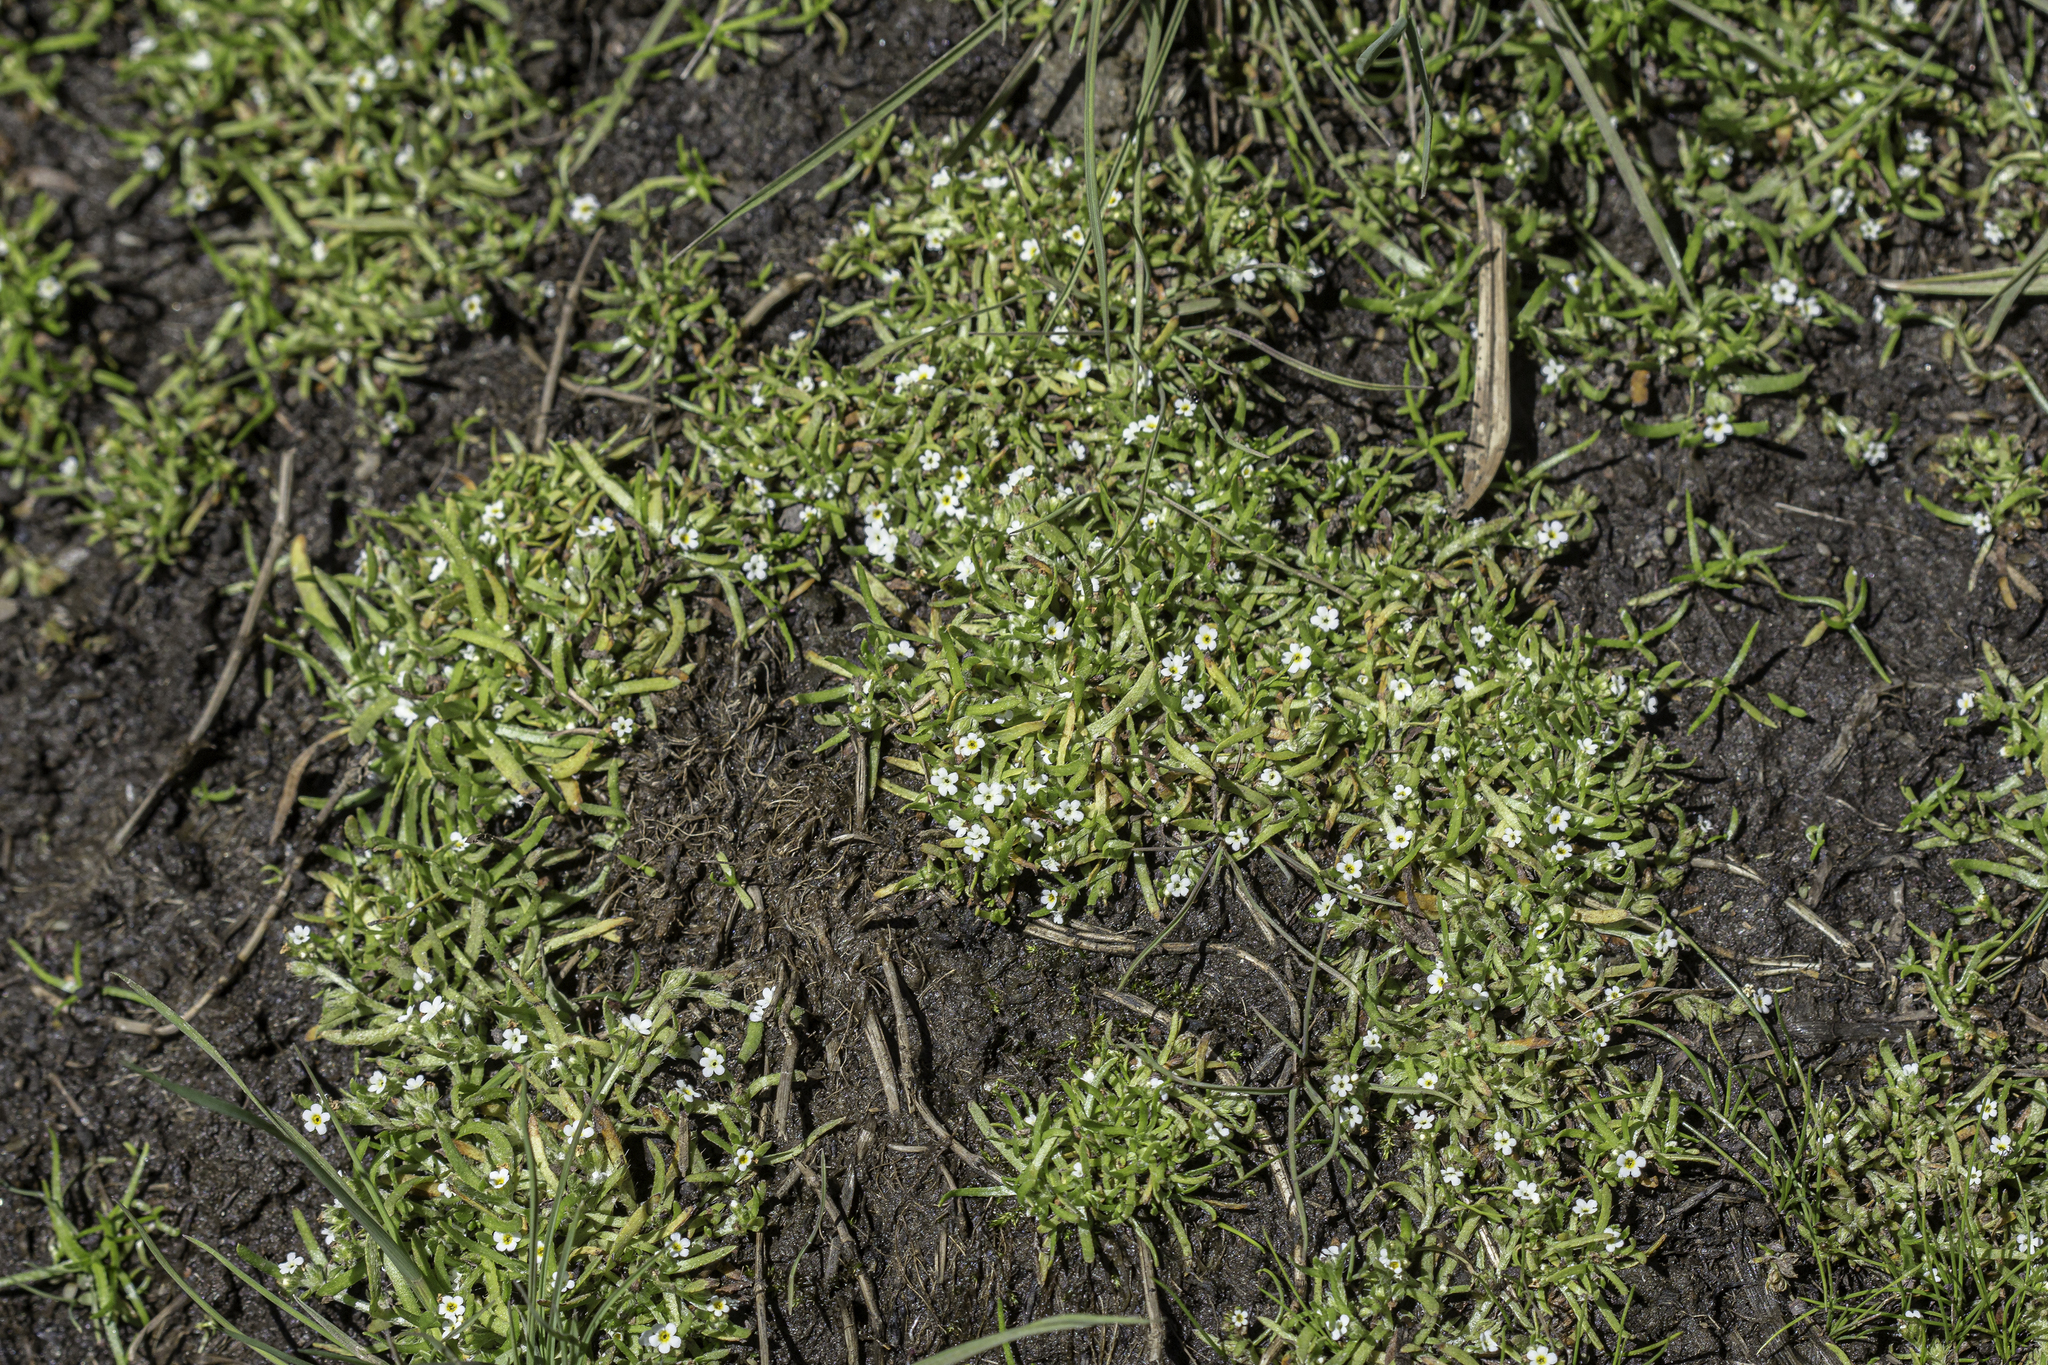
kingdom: Plantae
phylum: Tracheophyta
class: Magnoliopsida
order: Boraginales
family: Boraginaceae
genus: Plagiobothrys
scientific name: Plagiobothrys scouleri
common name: White forget-me-not
